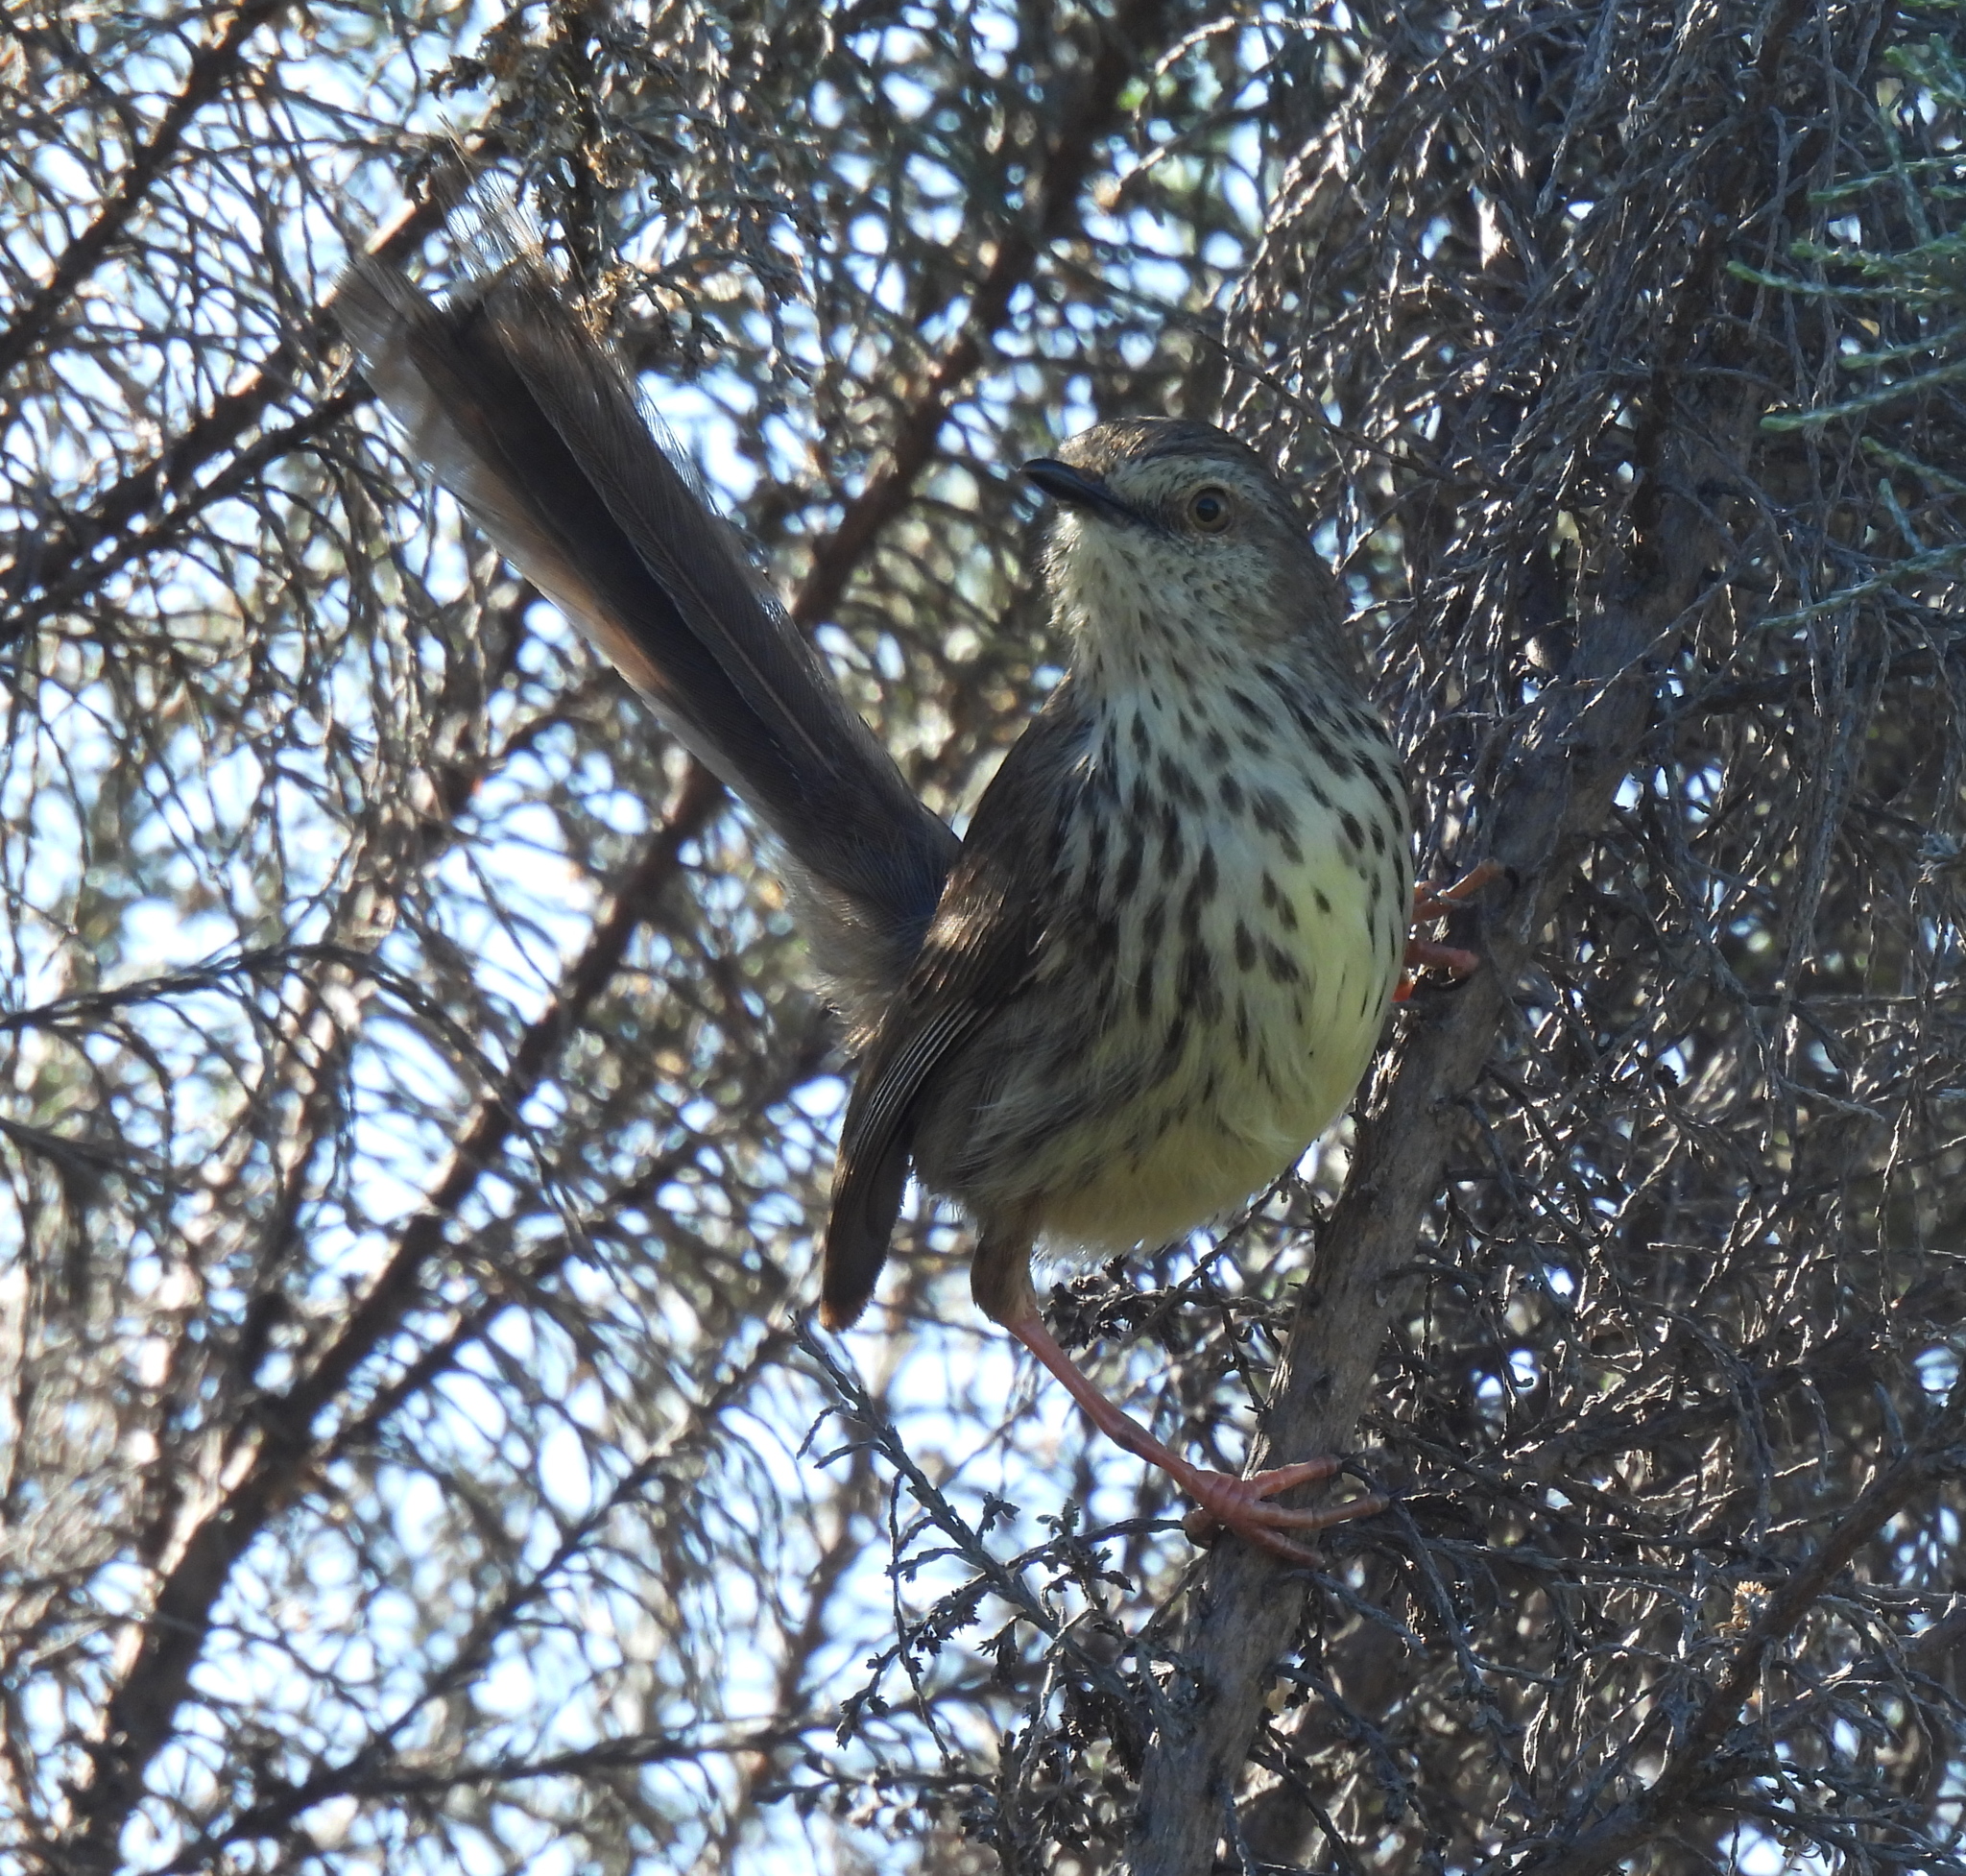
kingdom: Animalia
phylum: Chordata
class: Aves
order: Passeriformes
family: Cisticolidae
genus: Prinia
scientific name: Prinia maculosa
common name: Karoo prinia
